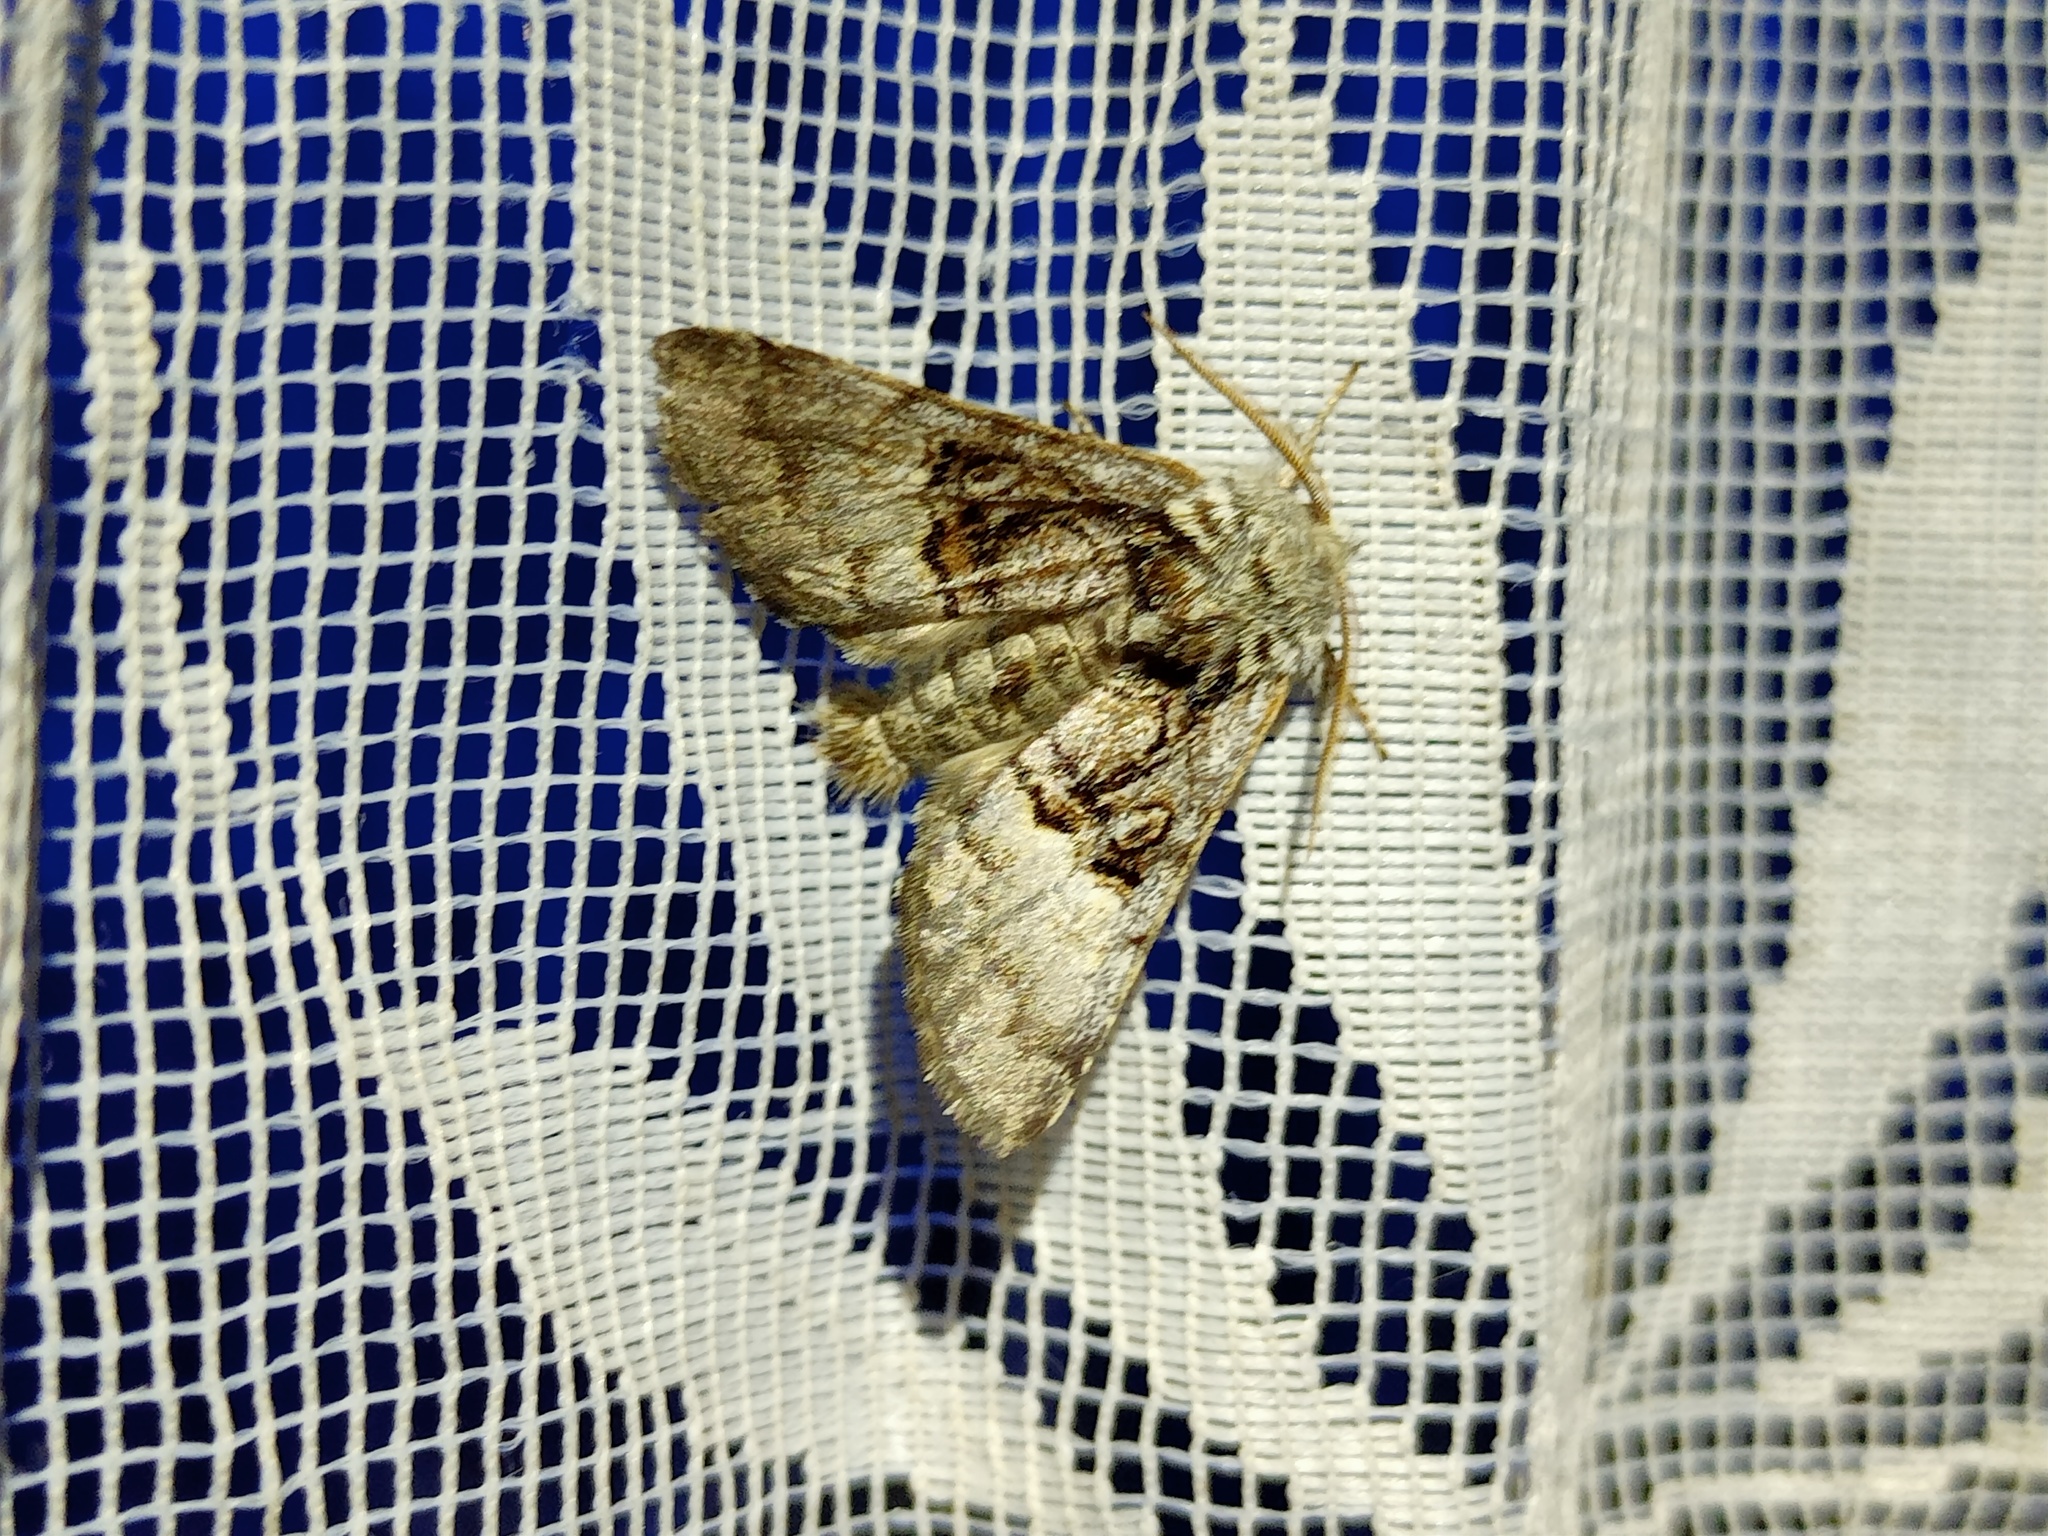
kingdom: Animalia
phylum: Arthropoda
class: Insecta
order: Lepidoptera
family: Noctuidae
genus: Colocasia
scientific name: Colocasia coryli
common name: Nut-tree tussock
